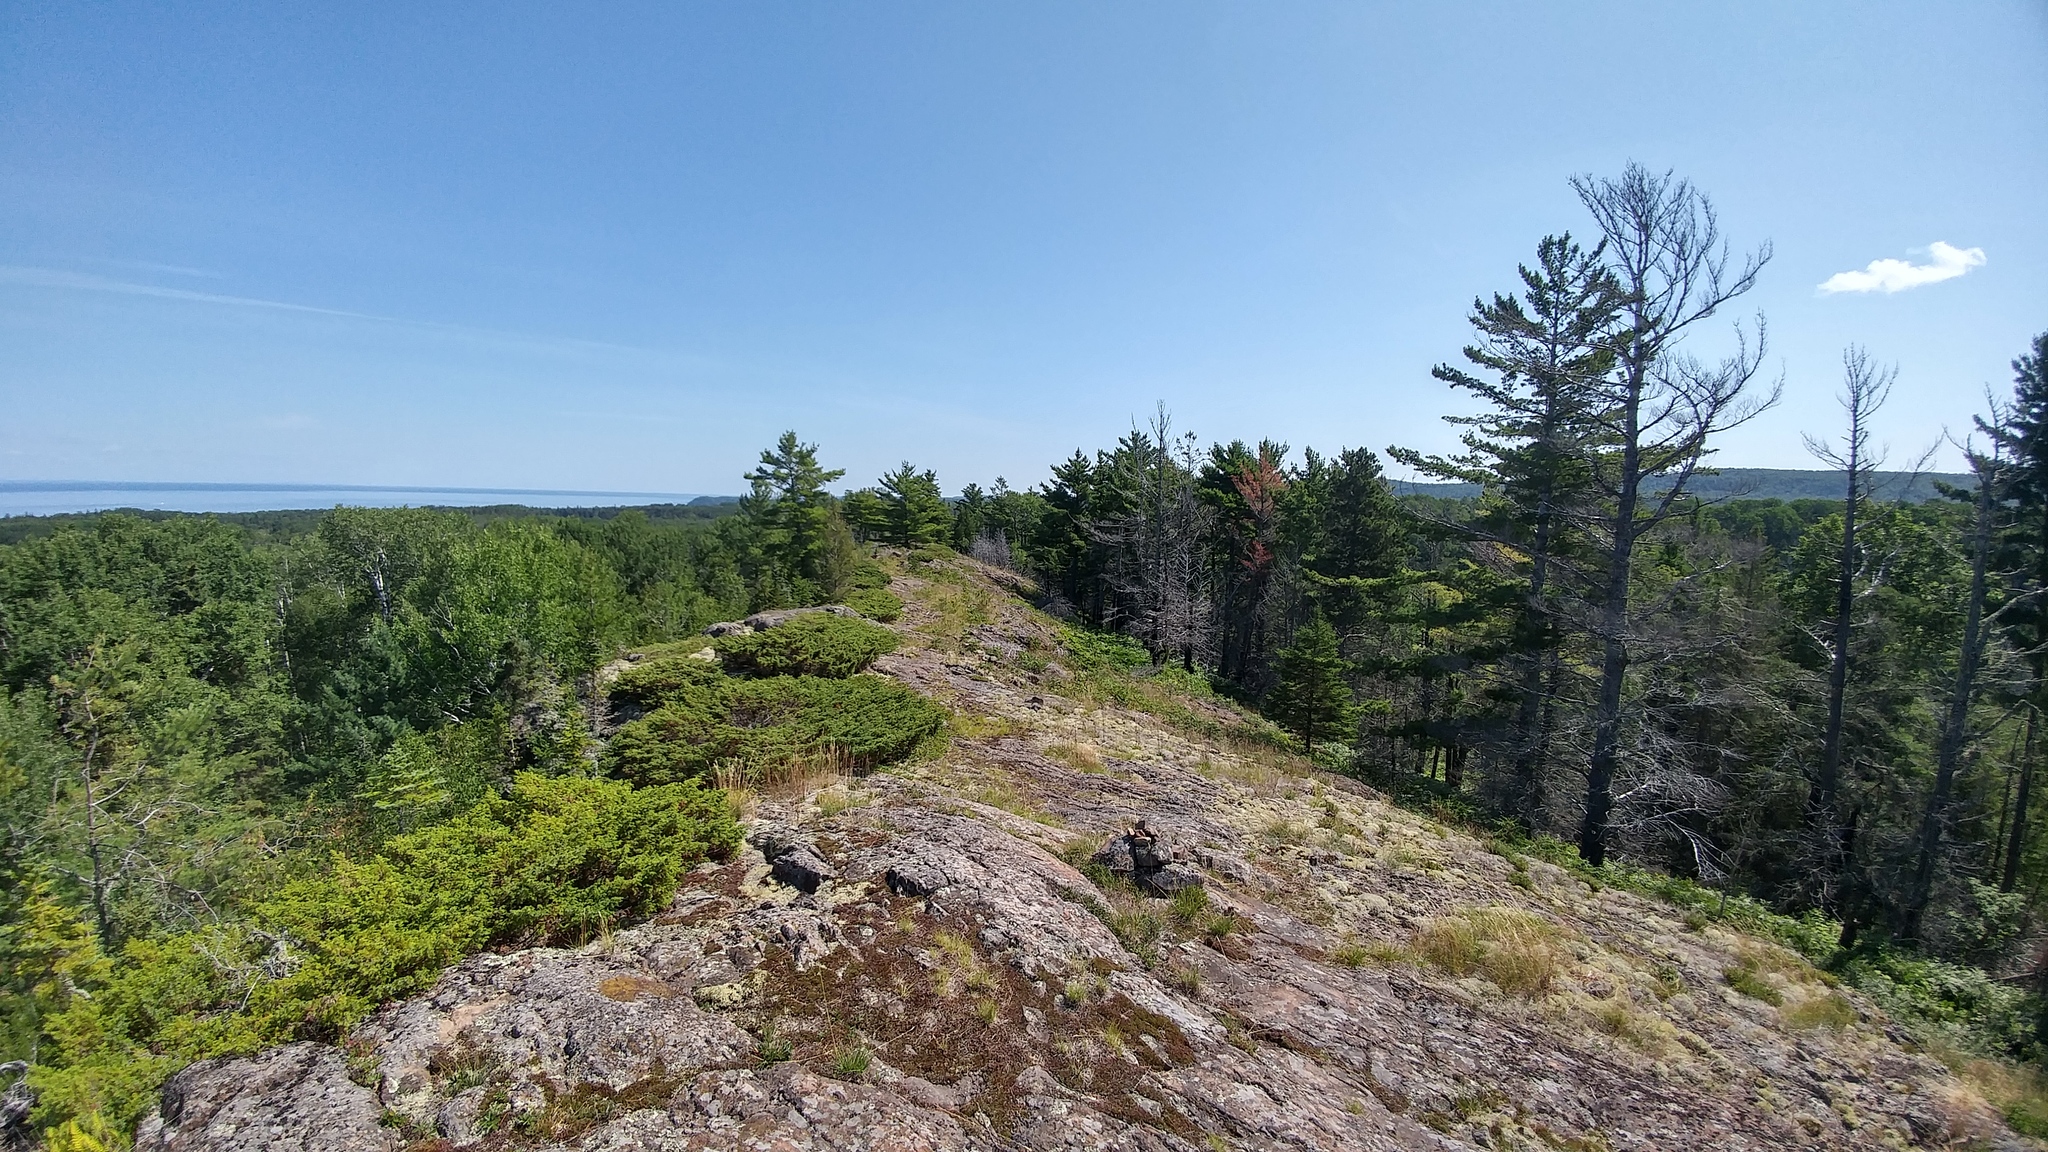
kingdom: Plantae
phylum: Tracheophyta
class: Pinopsida
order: Pinales
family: Cupressaceae
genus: Juniperus
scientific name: Juniperus communis
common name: Common juniper
